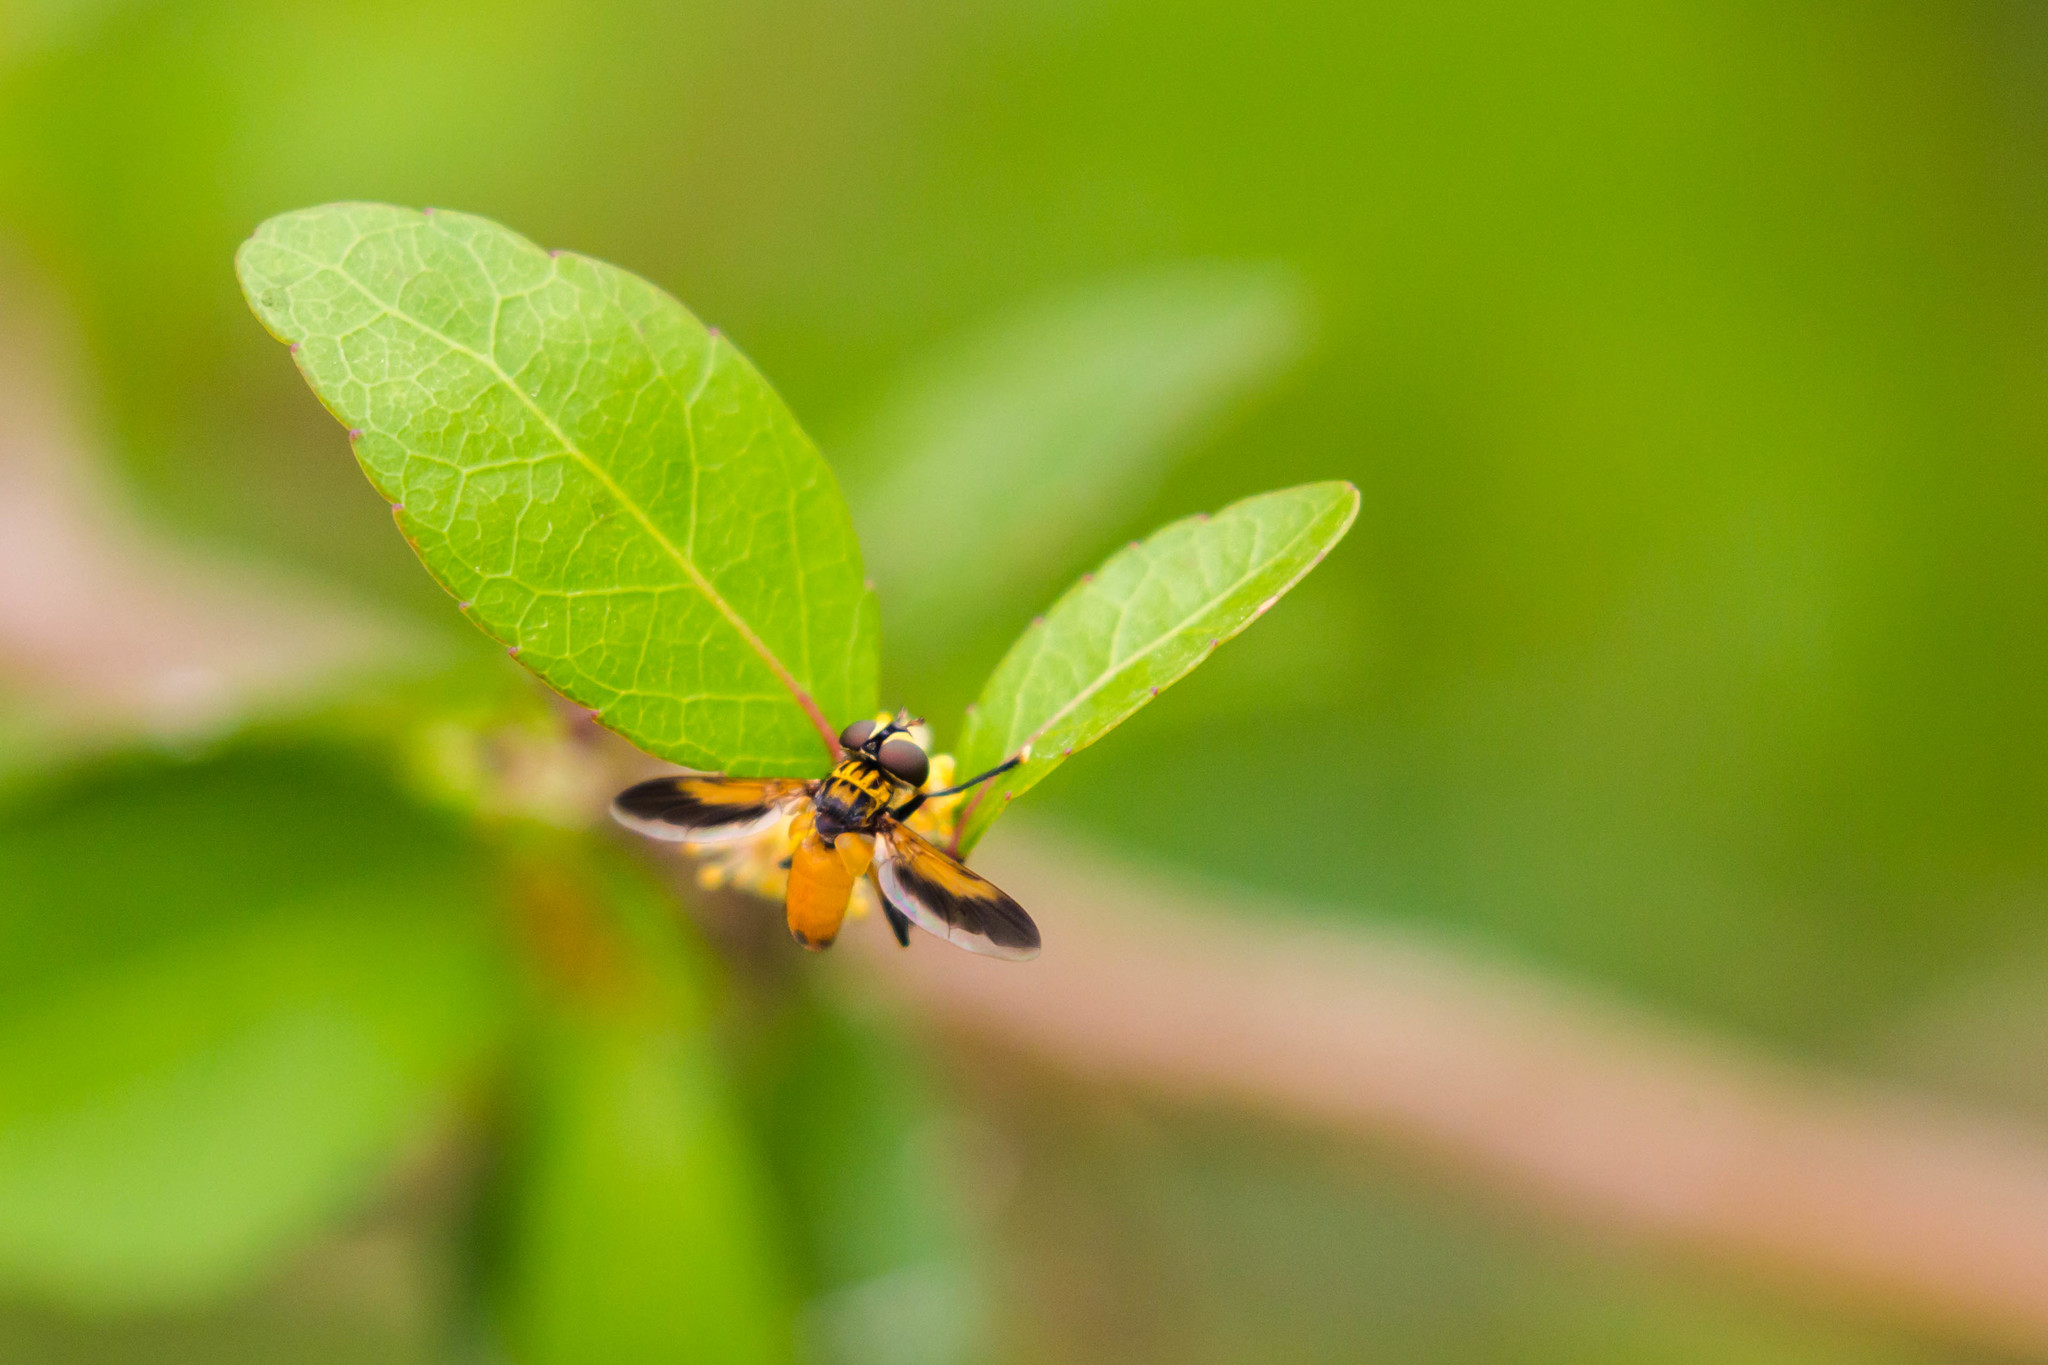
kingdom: Animalia
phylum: Arthropoda
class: Insecta
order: Diptera
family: Tachinidae
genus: Trichopoda
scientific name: Trichopoda pennipes
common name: Tachinid fly
